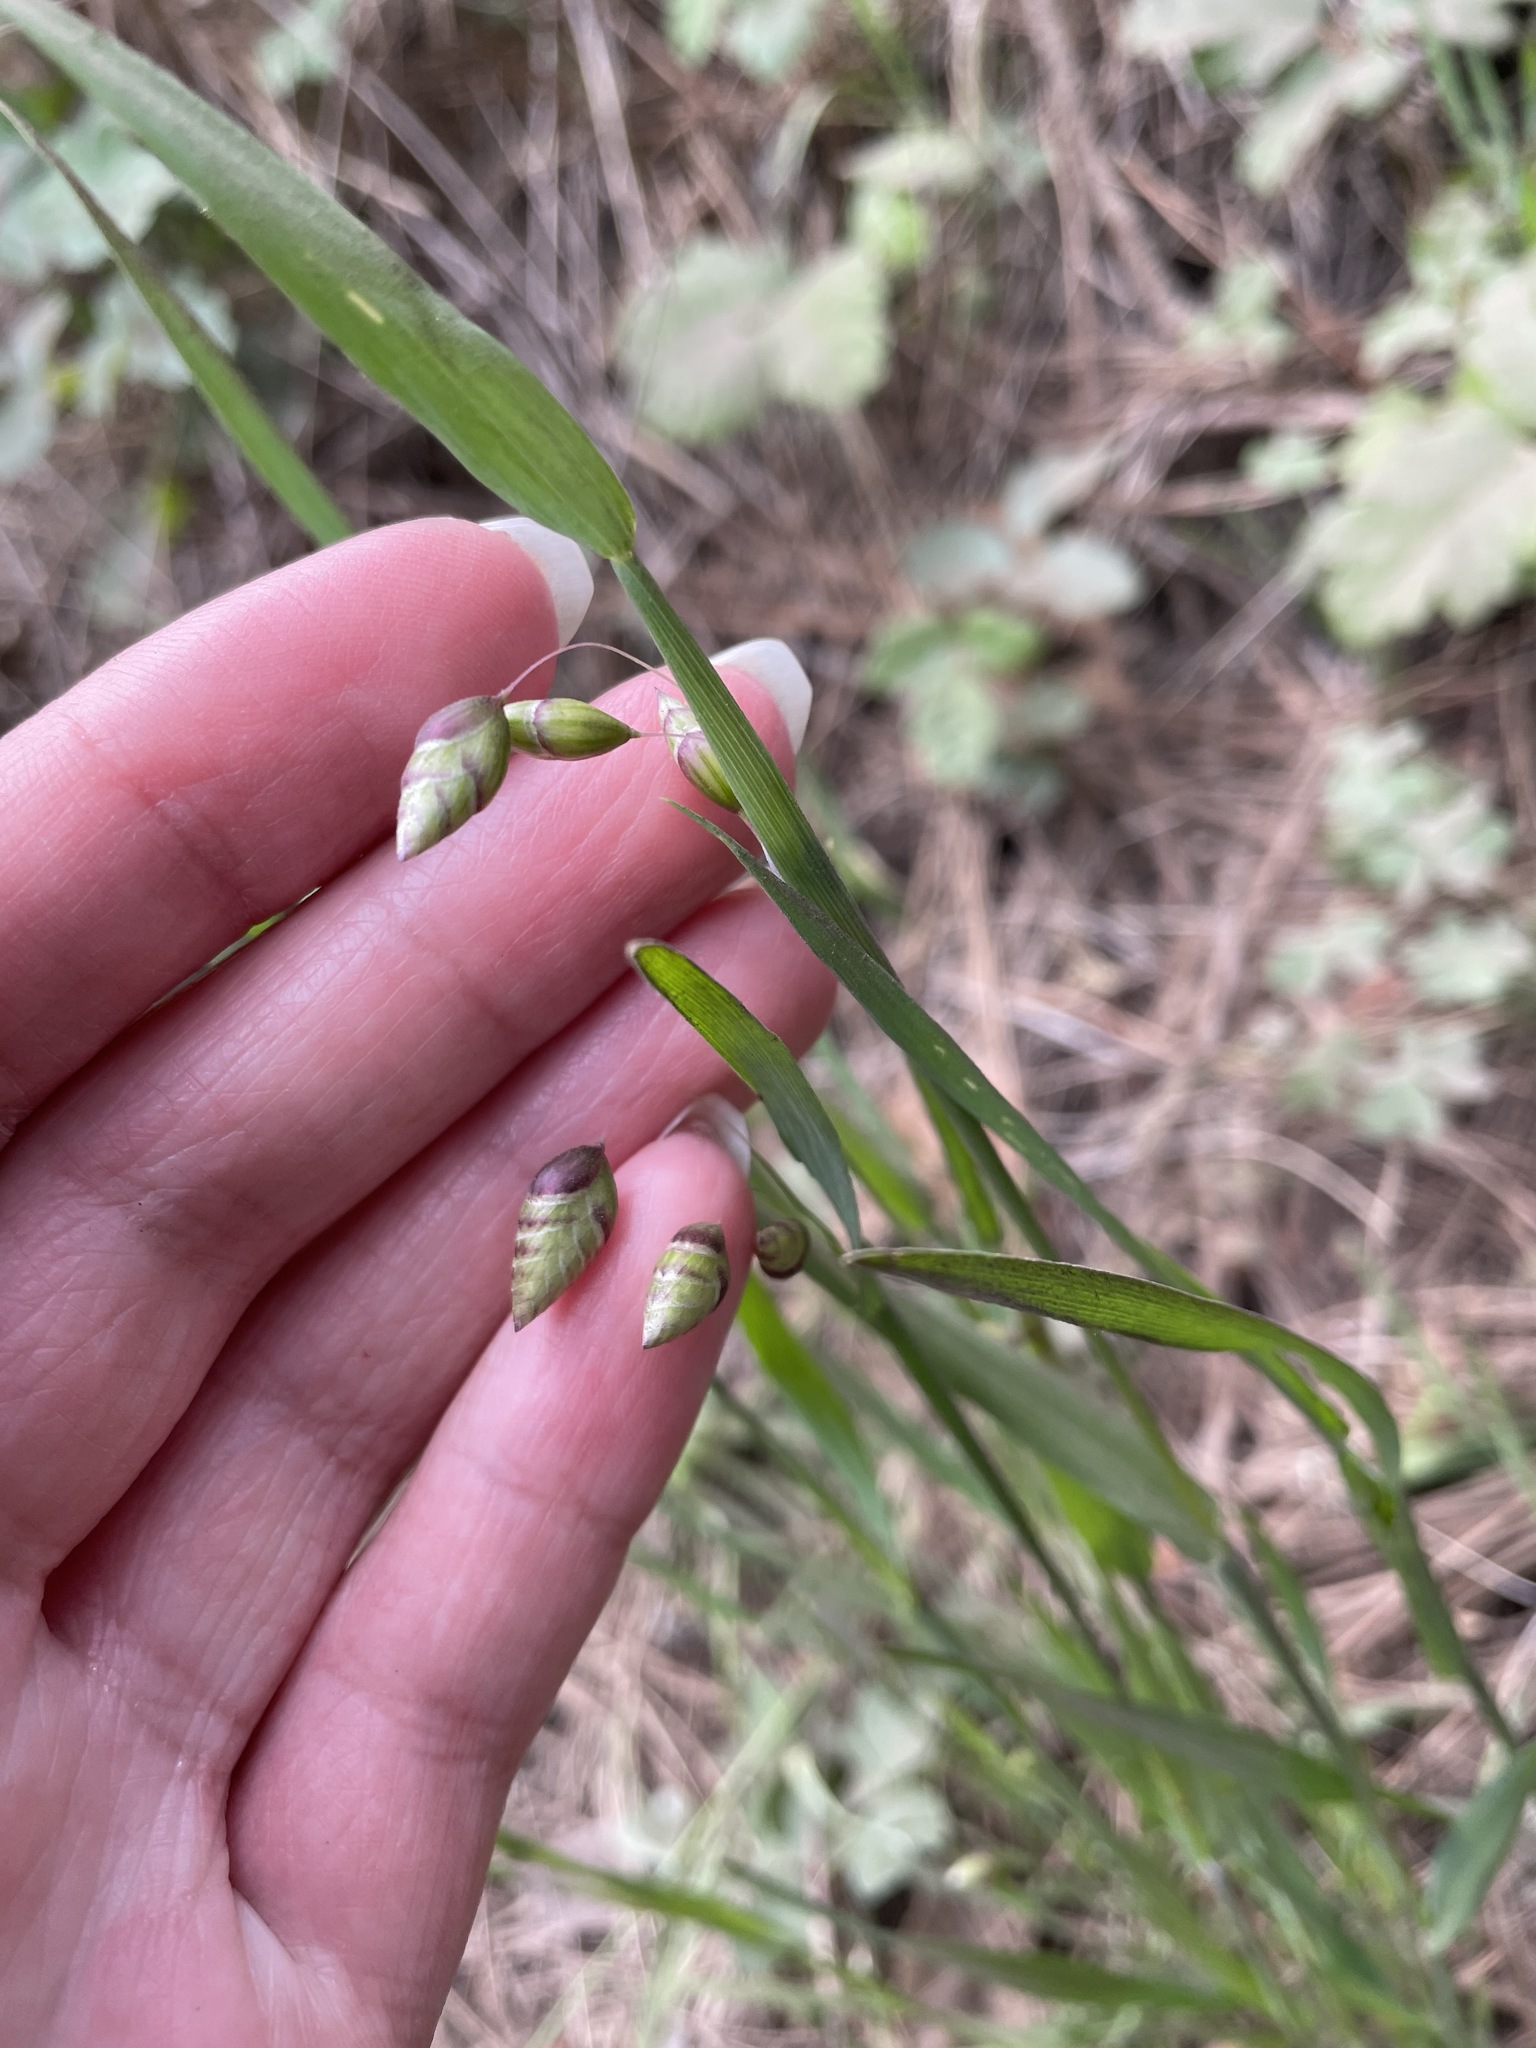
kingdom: Plantae
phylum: Tracheophyta
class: Liliopsida
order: Poales
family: Poaceae
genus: Briza
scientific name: Briza maxima
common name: Big quakinggrass
